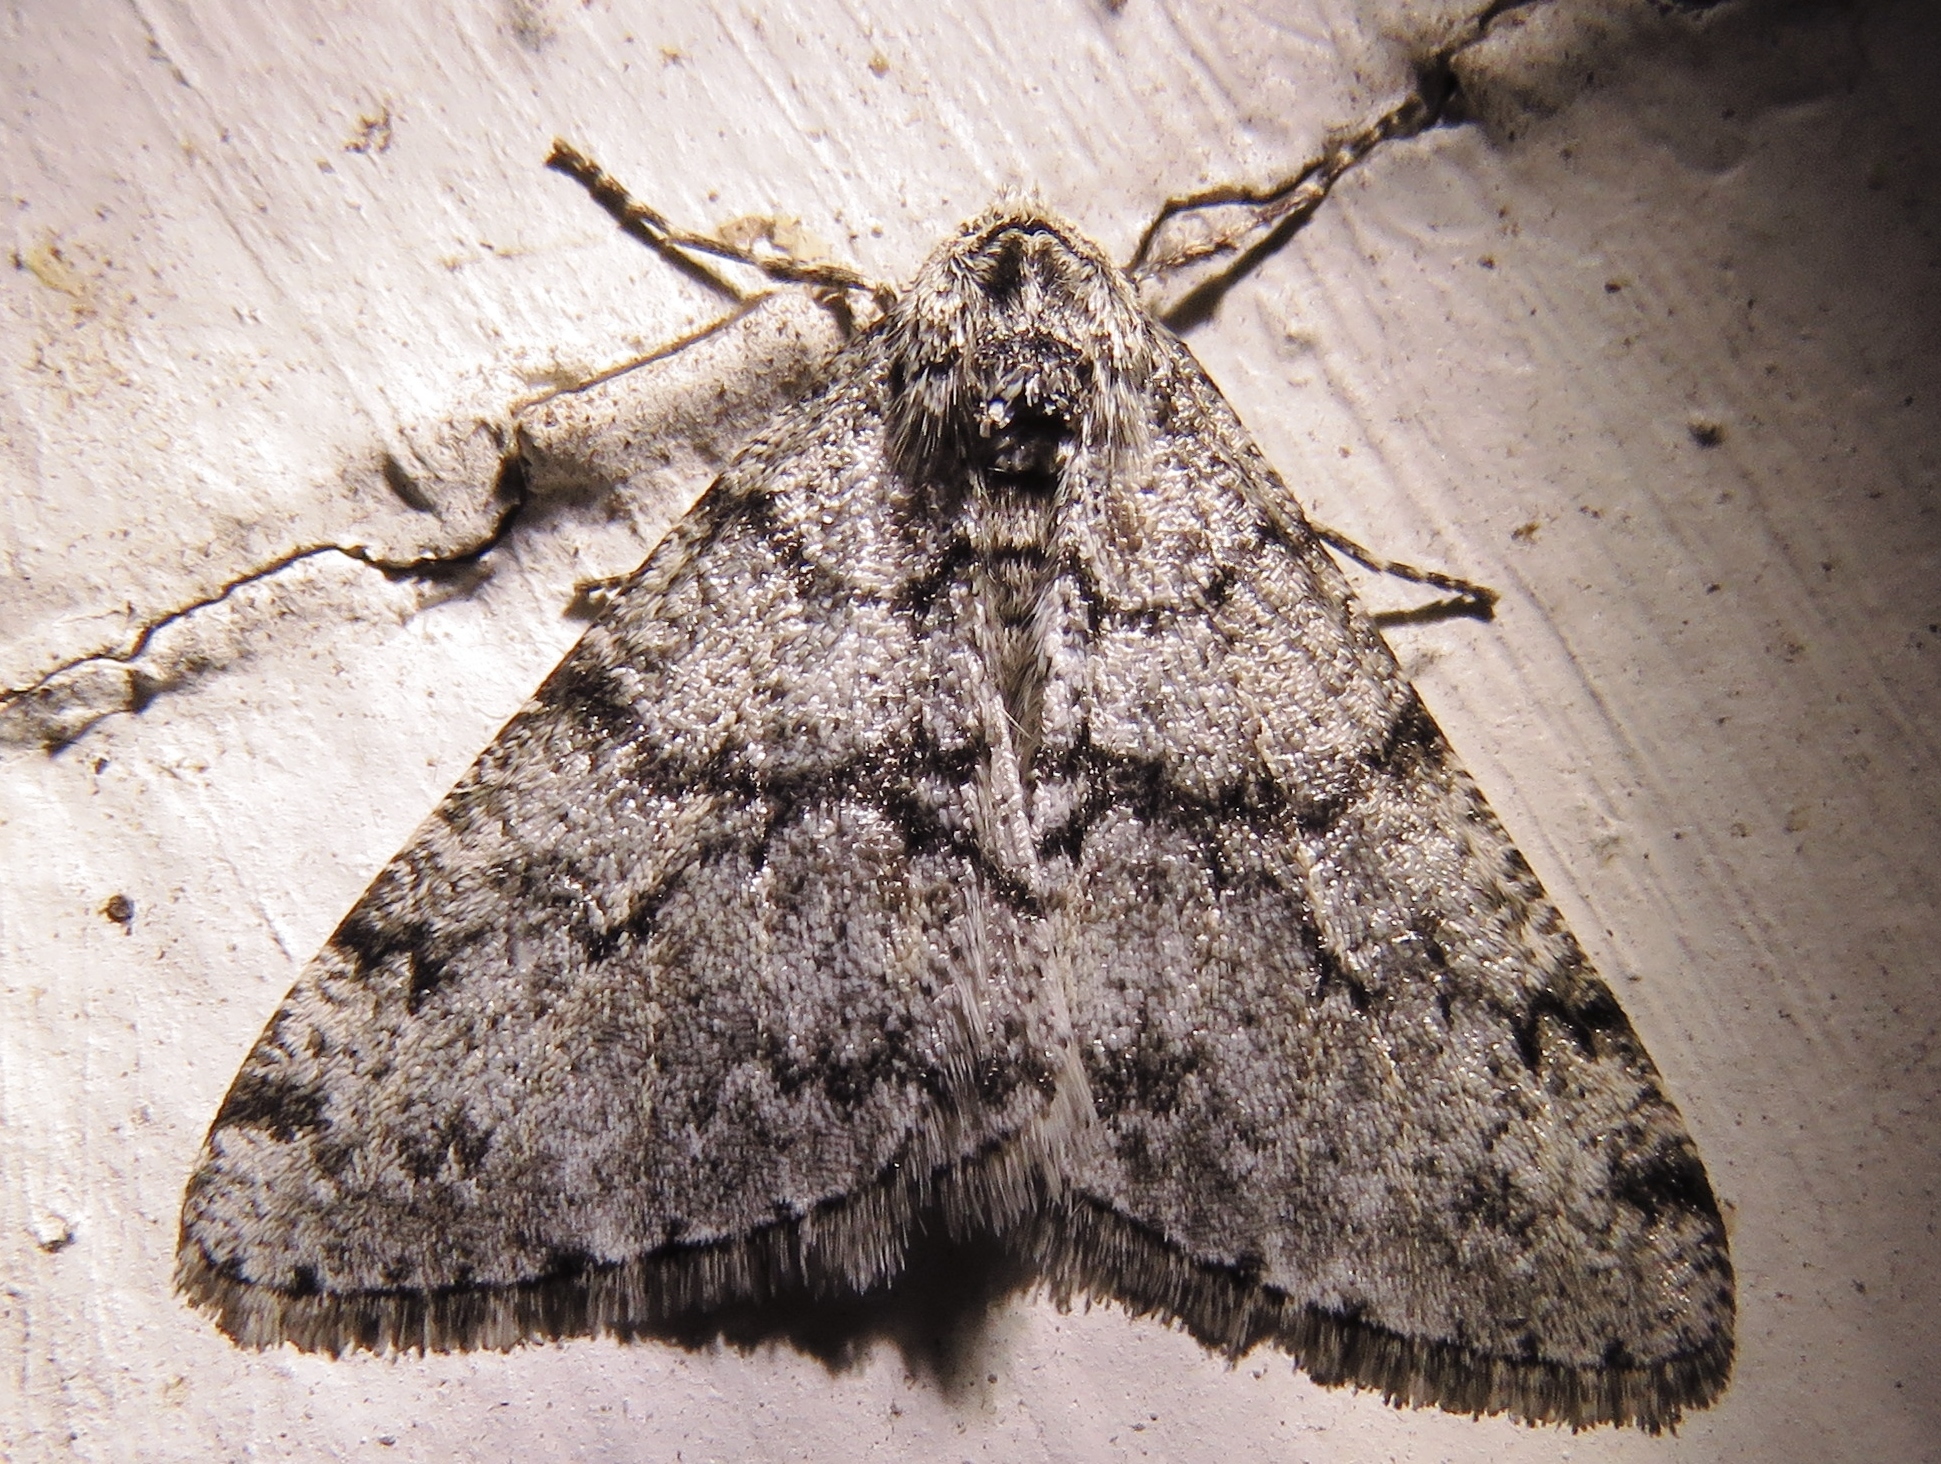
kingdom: Animalia
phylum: Arthropoda
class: Insecta
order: Lepidoptera
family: Geometridae
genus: Phigalia
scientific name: Phigalia denticulata
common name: Toothed phigalia
